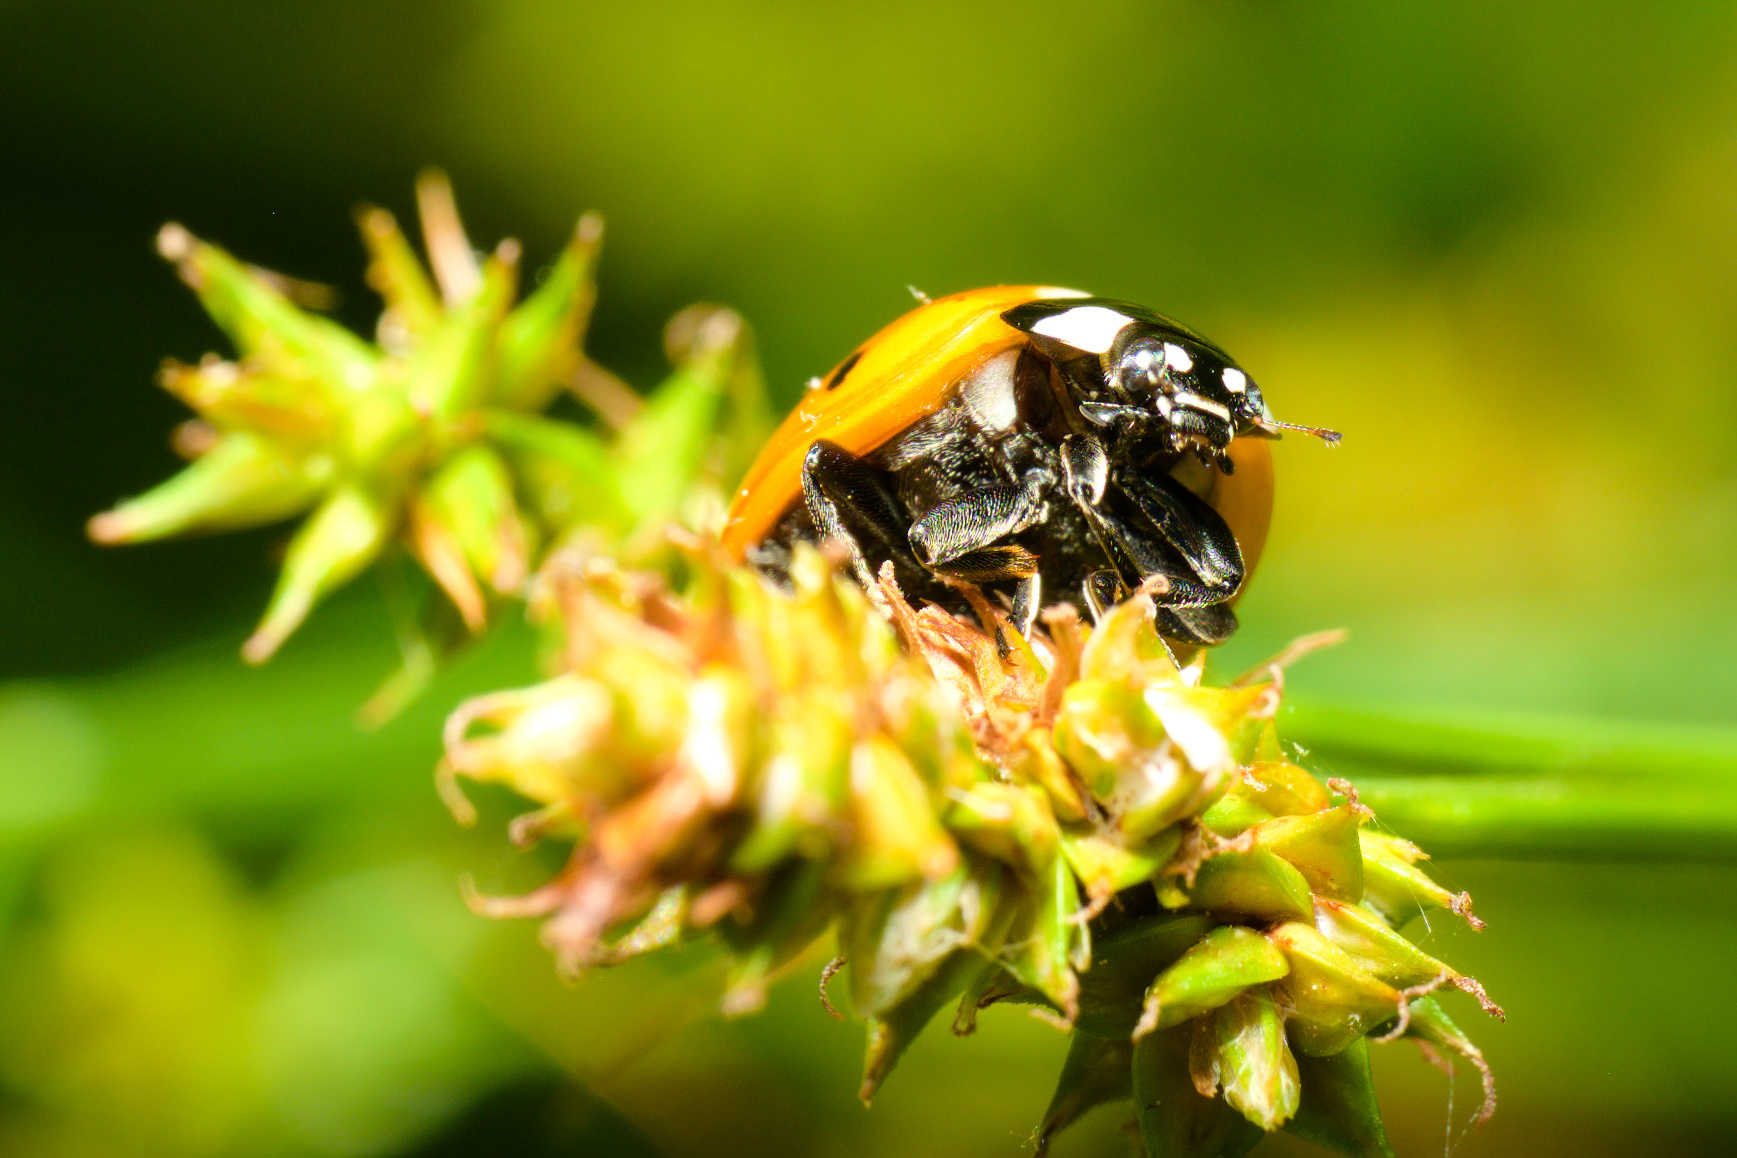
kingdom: Animalia
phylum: Arthropoda
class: Insecta
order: Coleoptera
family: Coccinellidae
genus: Coccinella
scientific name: Coccinella septempunctata
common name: Sevenspotted lady beetle
